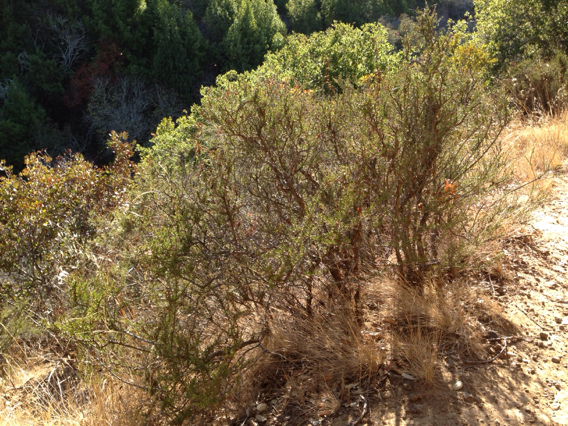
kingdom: Plantae
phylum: Tracheophyta
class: Magnoliopsida
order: Rosales
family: Rosaceae
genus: Adenostoma
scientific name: Adenostoma fasciculatum
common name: Chamise
